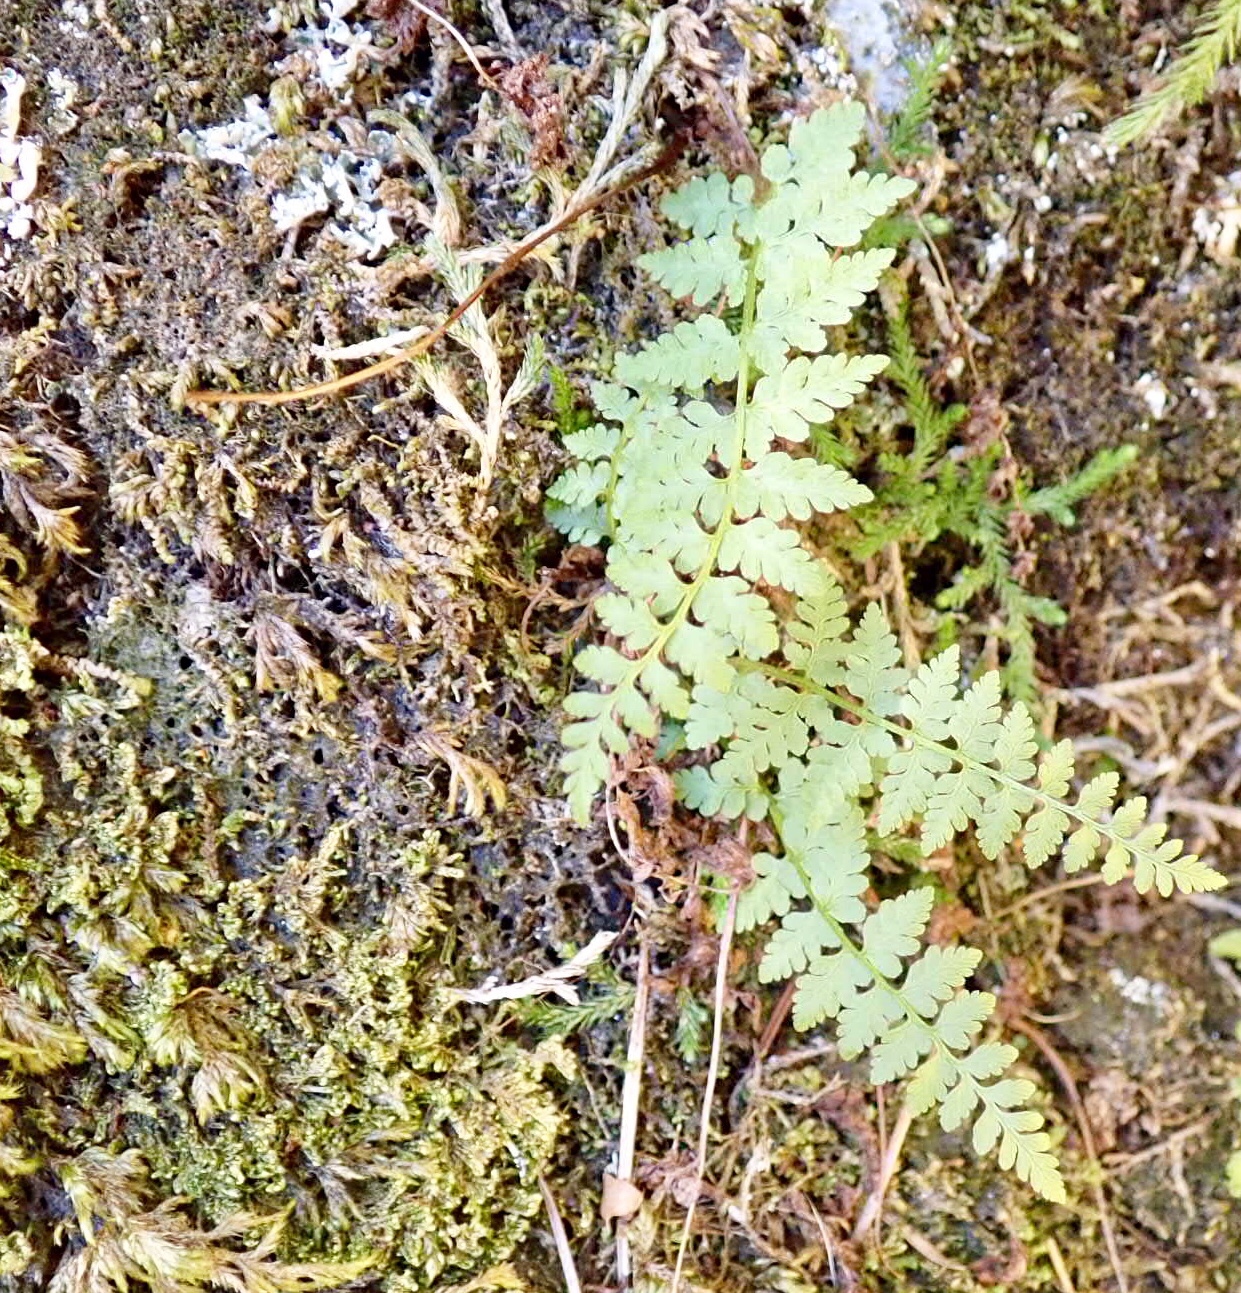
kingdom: Plantae
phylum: Tracheophyta
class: Polypodiopsida
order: Polypodiales
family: Athyriaceae
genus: Athyrium
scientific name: Athyrium filix-femina
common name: Lady fern
